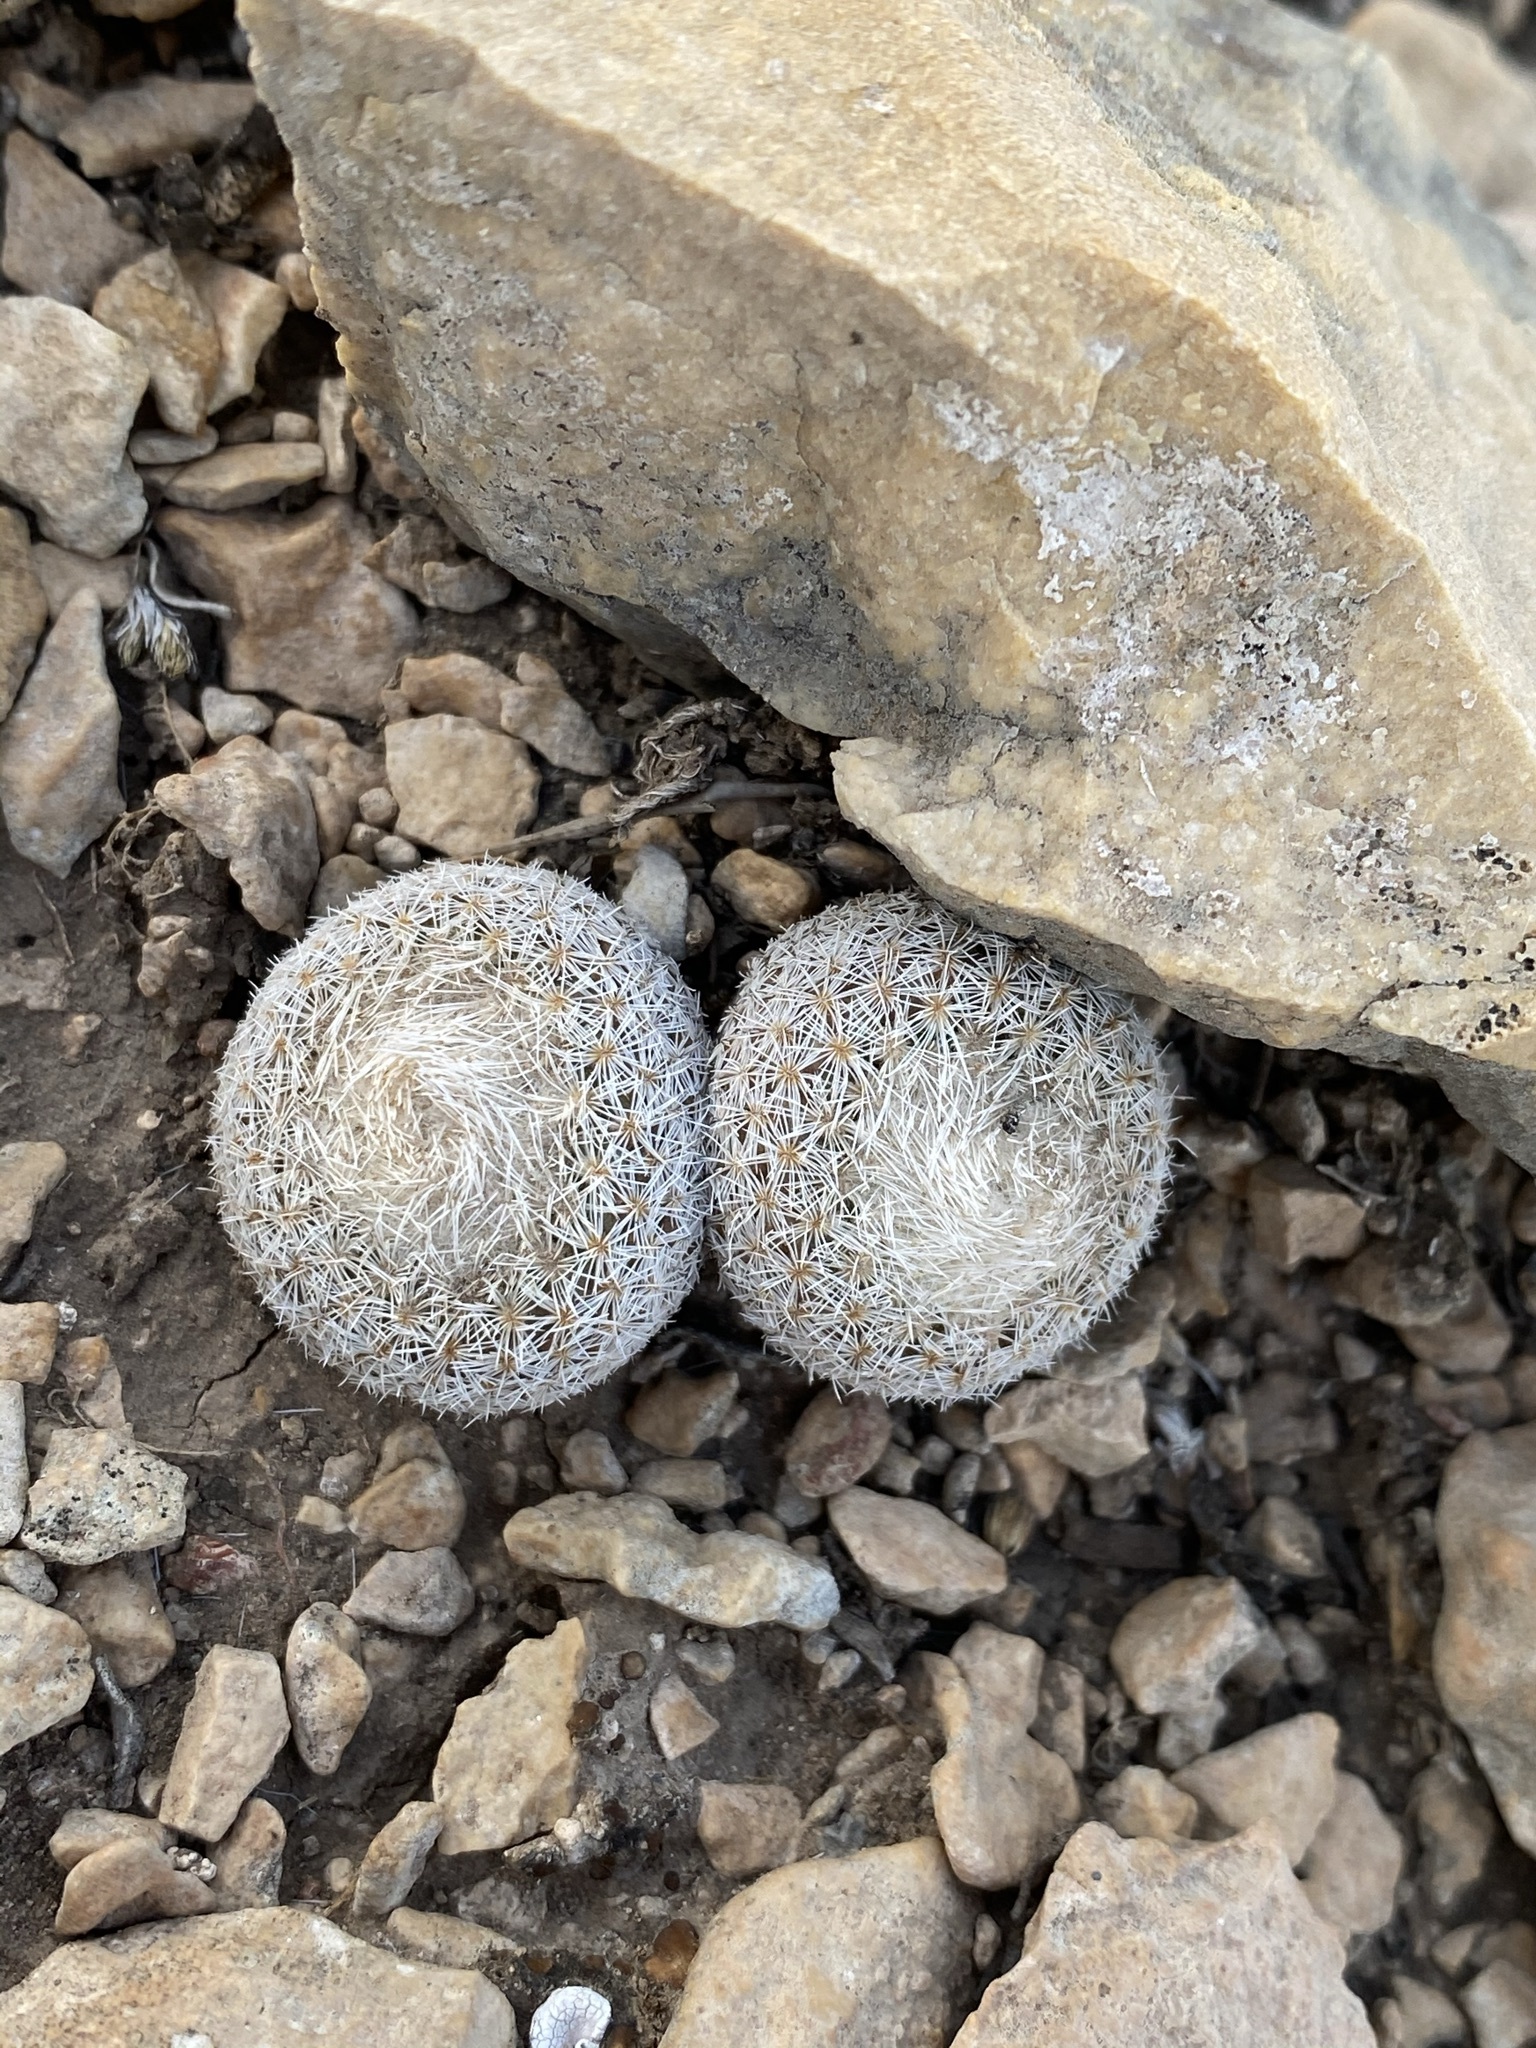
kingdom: Plantae
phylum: Tracheophyta
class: Magnoliopsida
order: Caryophyllales
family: Cactaceae
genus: Epithelantha
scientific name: Epithelantha micromeris
